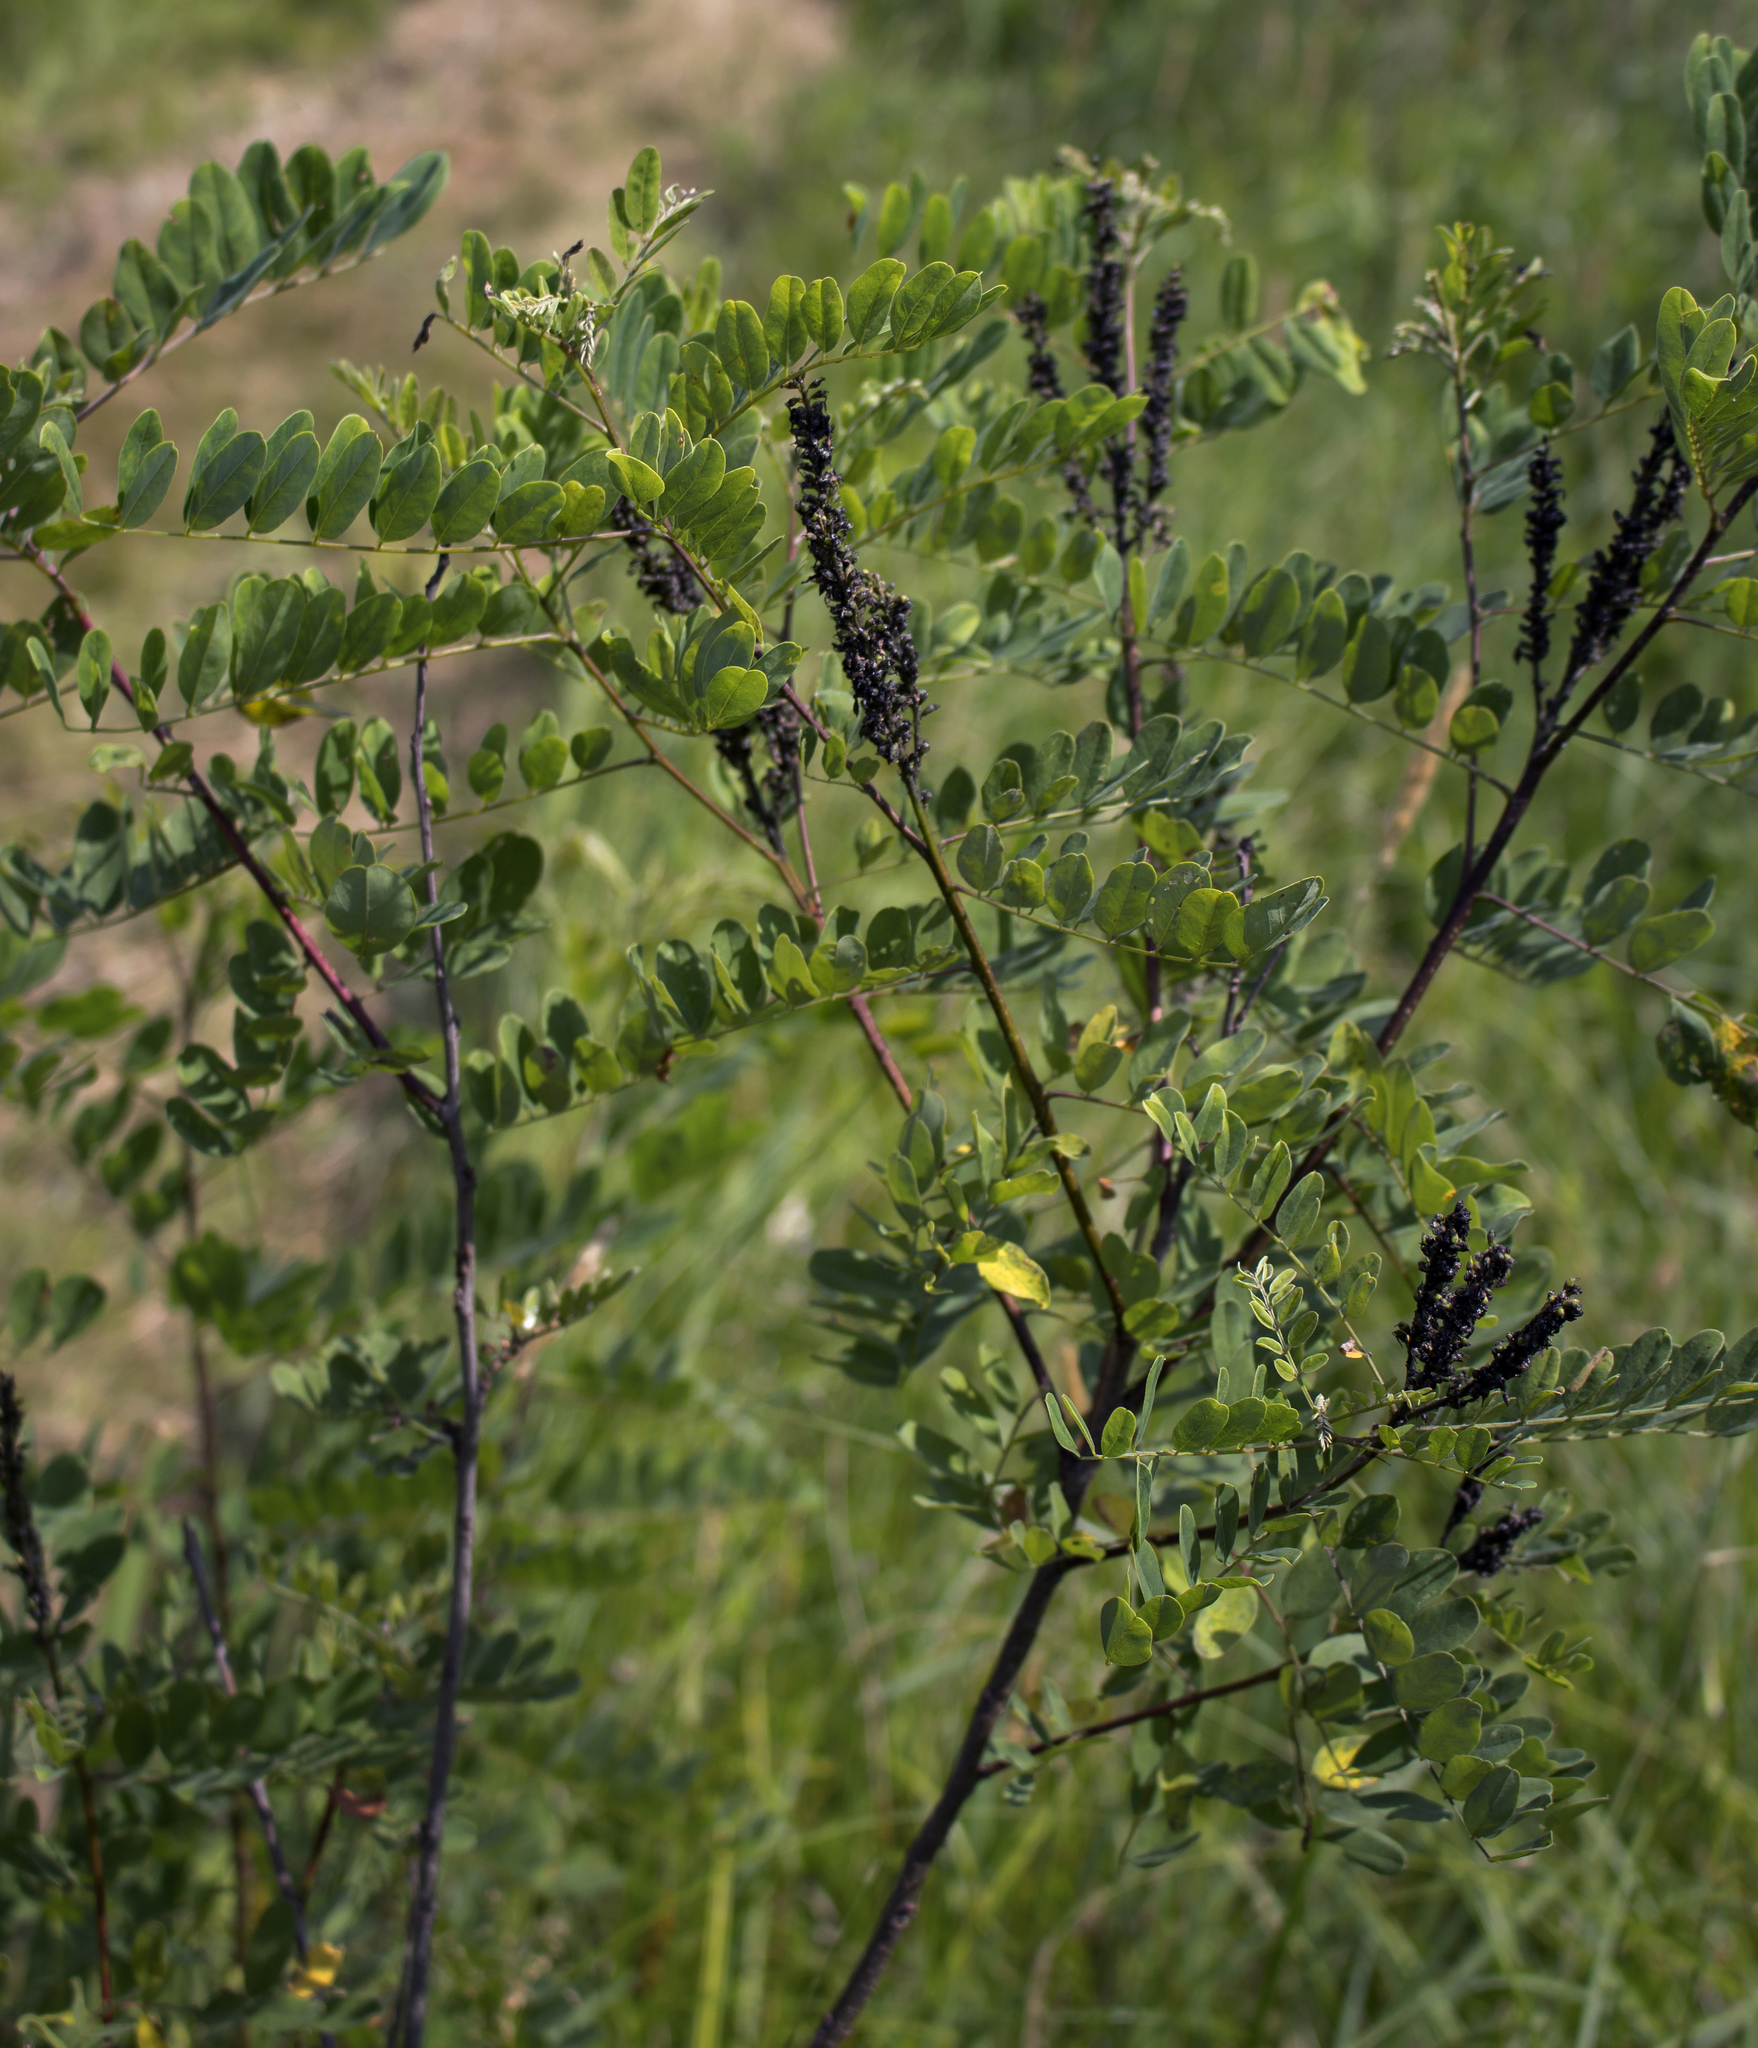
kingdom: Plantae
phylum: Tracheophyta
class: Magnoliopsida
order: Fabales
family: Fabaceae
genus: Amorpha
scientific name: Amorpha fruticosa
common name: False indigo
